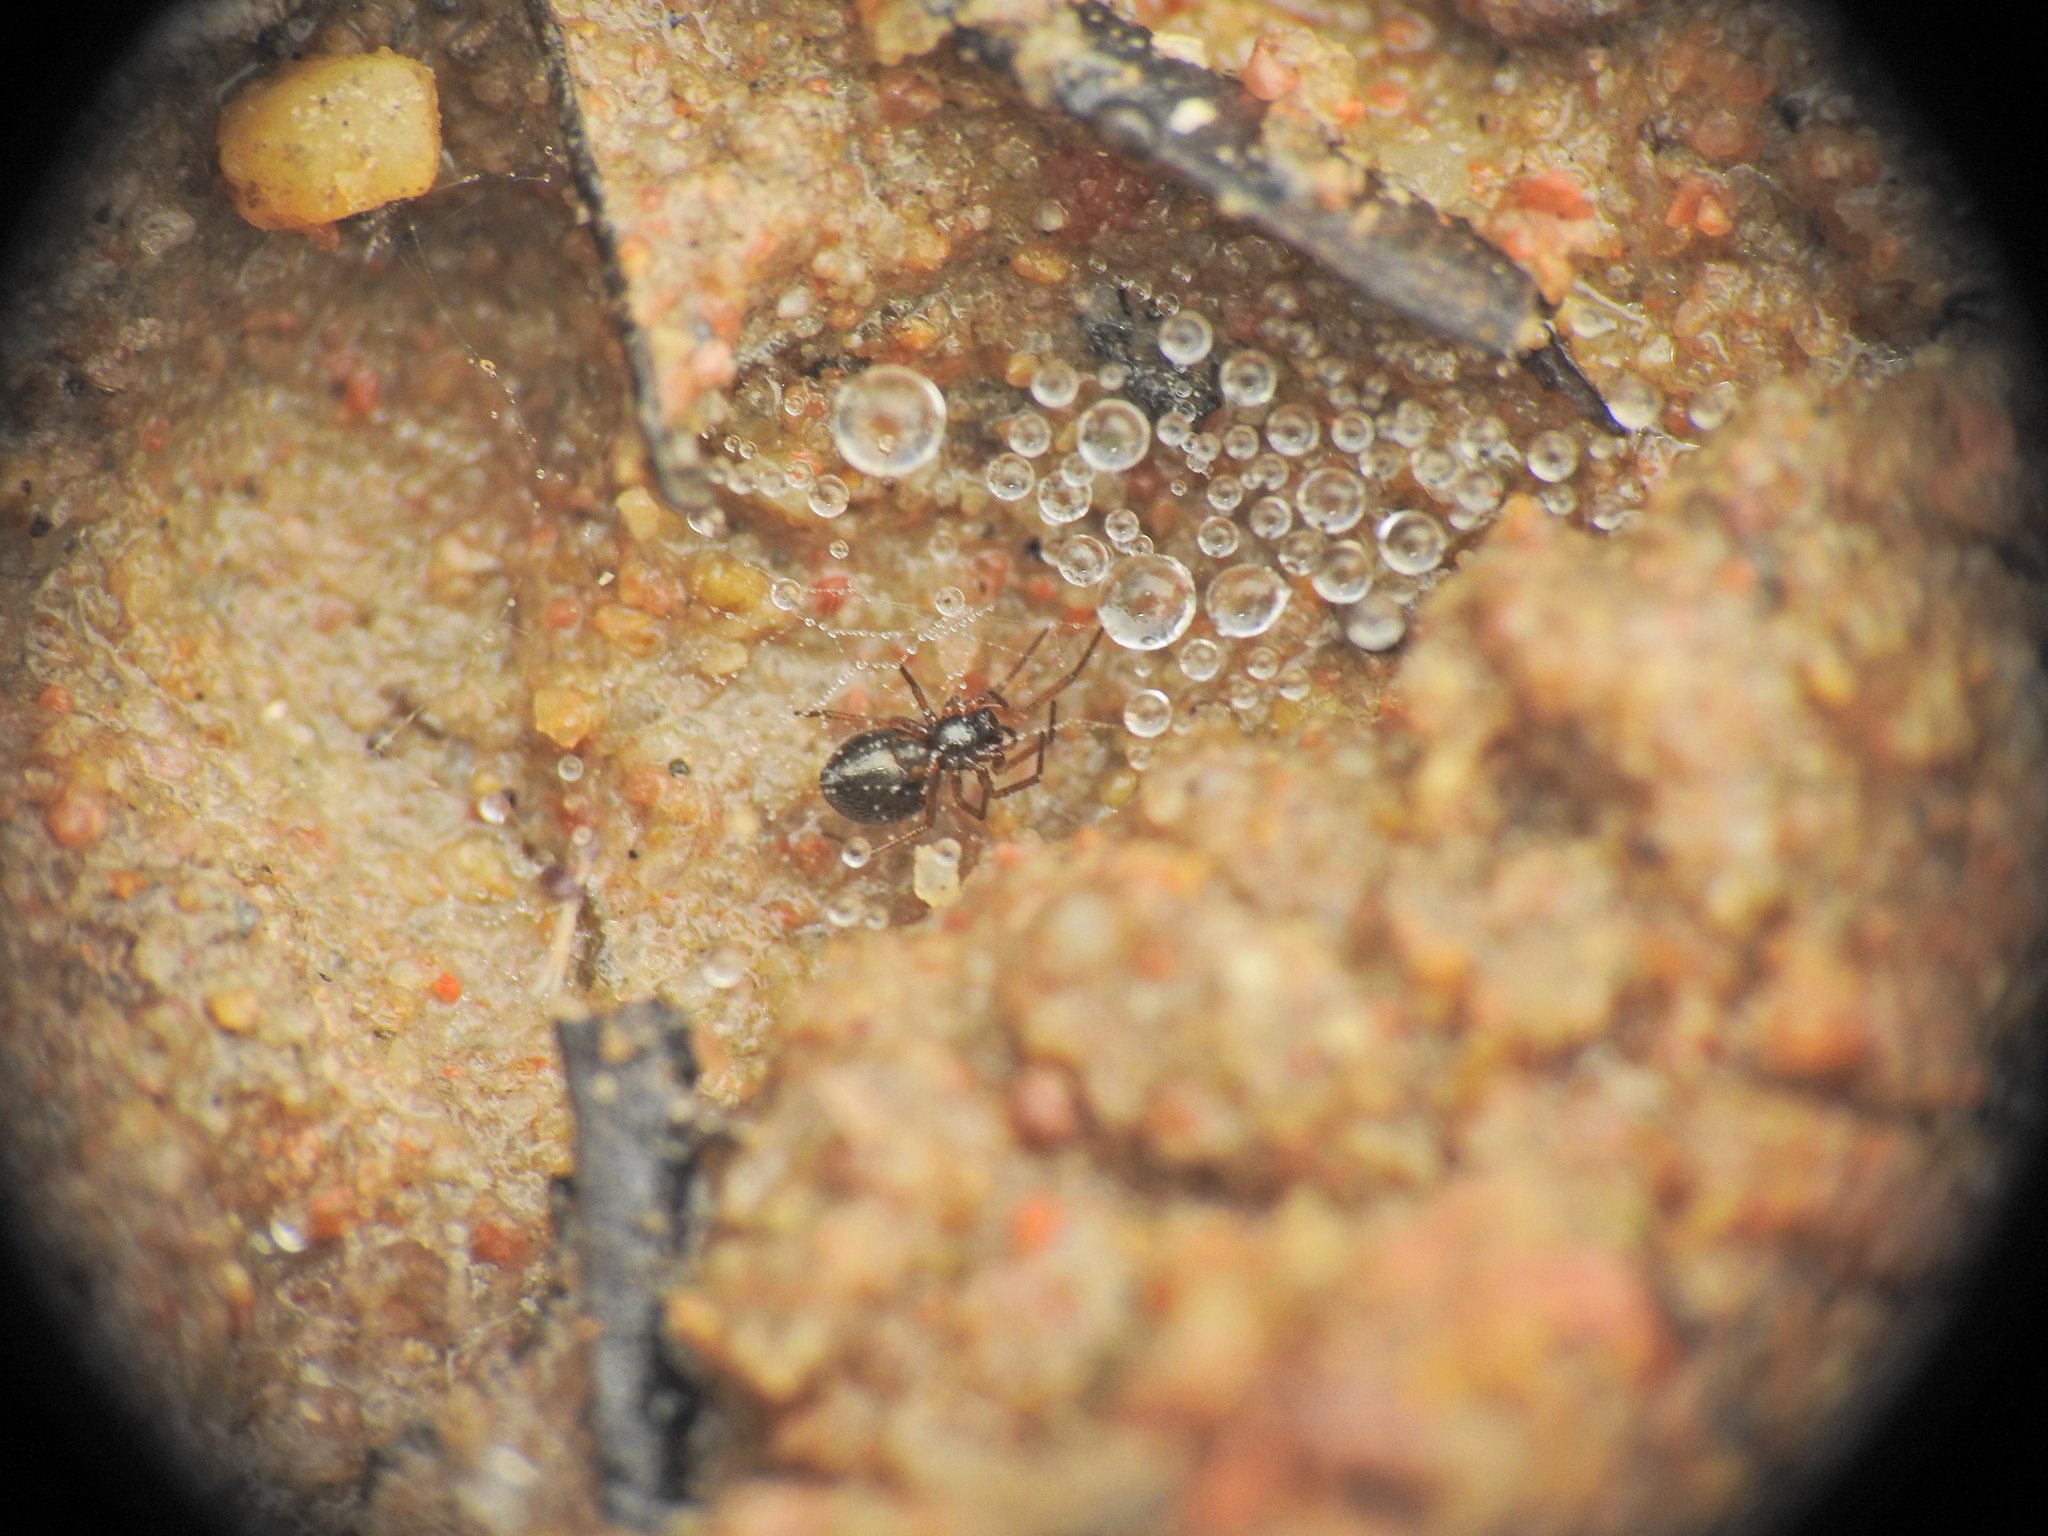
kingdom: Animalia
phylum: Arthropoda
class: Arachnida
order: Araneae
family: Linyphiidae
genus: Erigone
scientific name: Erigone eisenschmidti
